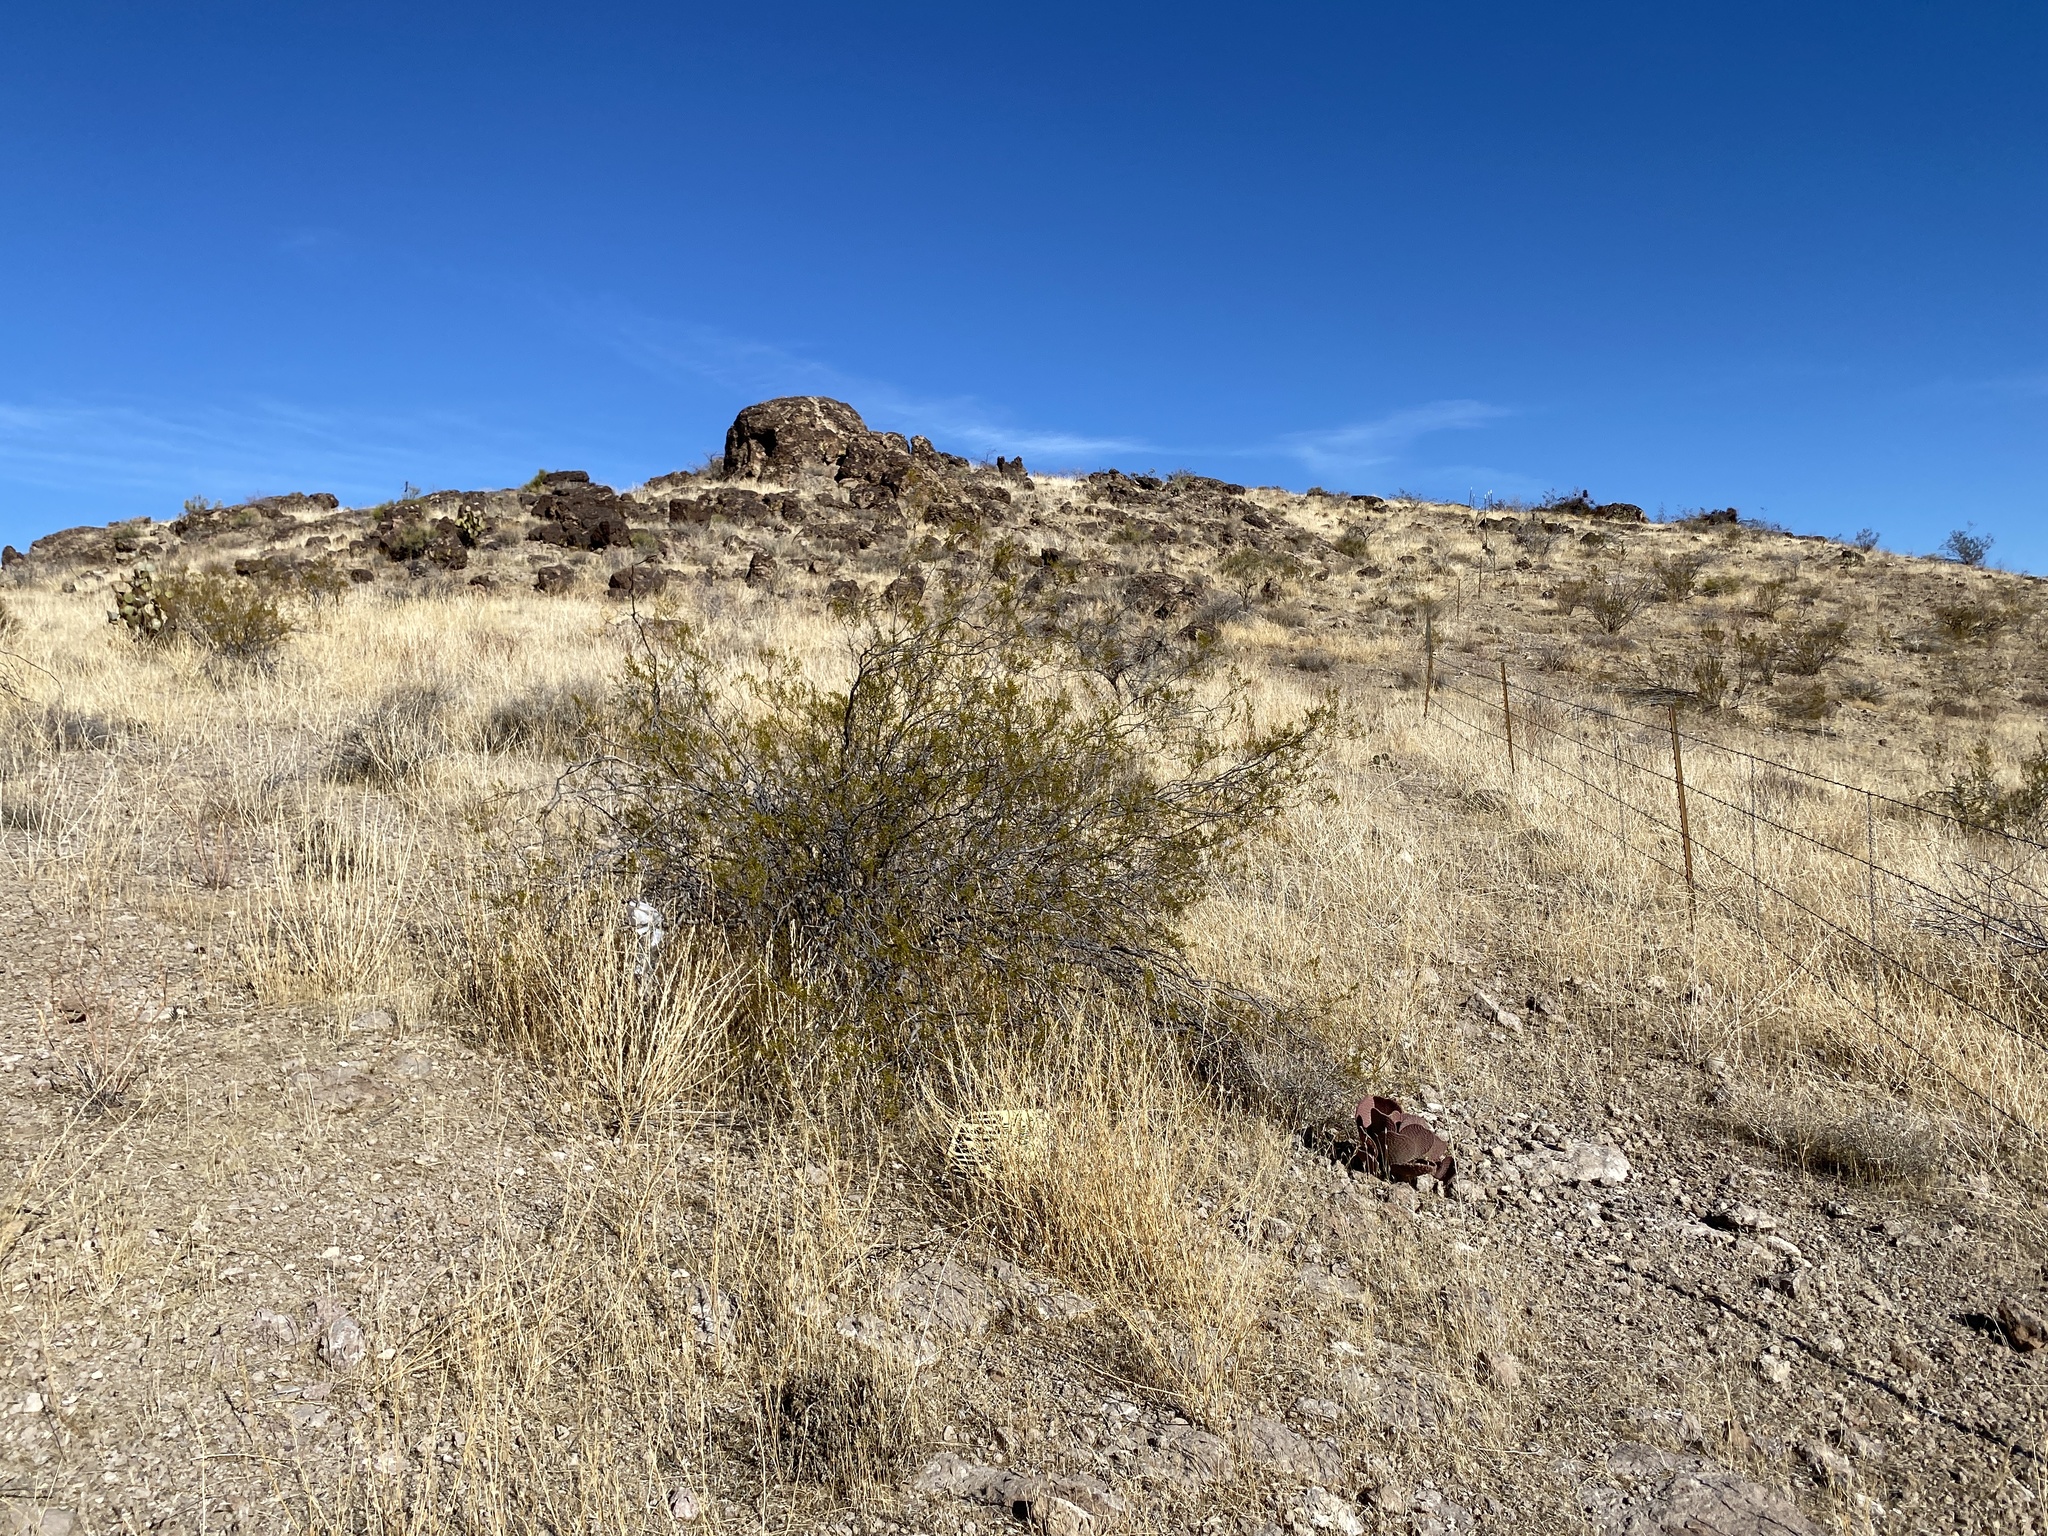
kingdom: Plantae
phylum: Tracheophyta
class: Magnoliopsida
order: Zygophyllales
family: Zygophyllaceae
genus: Larrea
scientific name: Larrea tridentata
